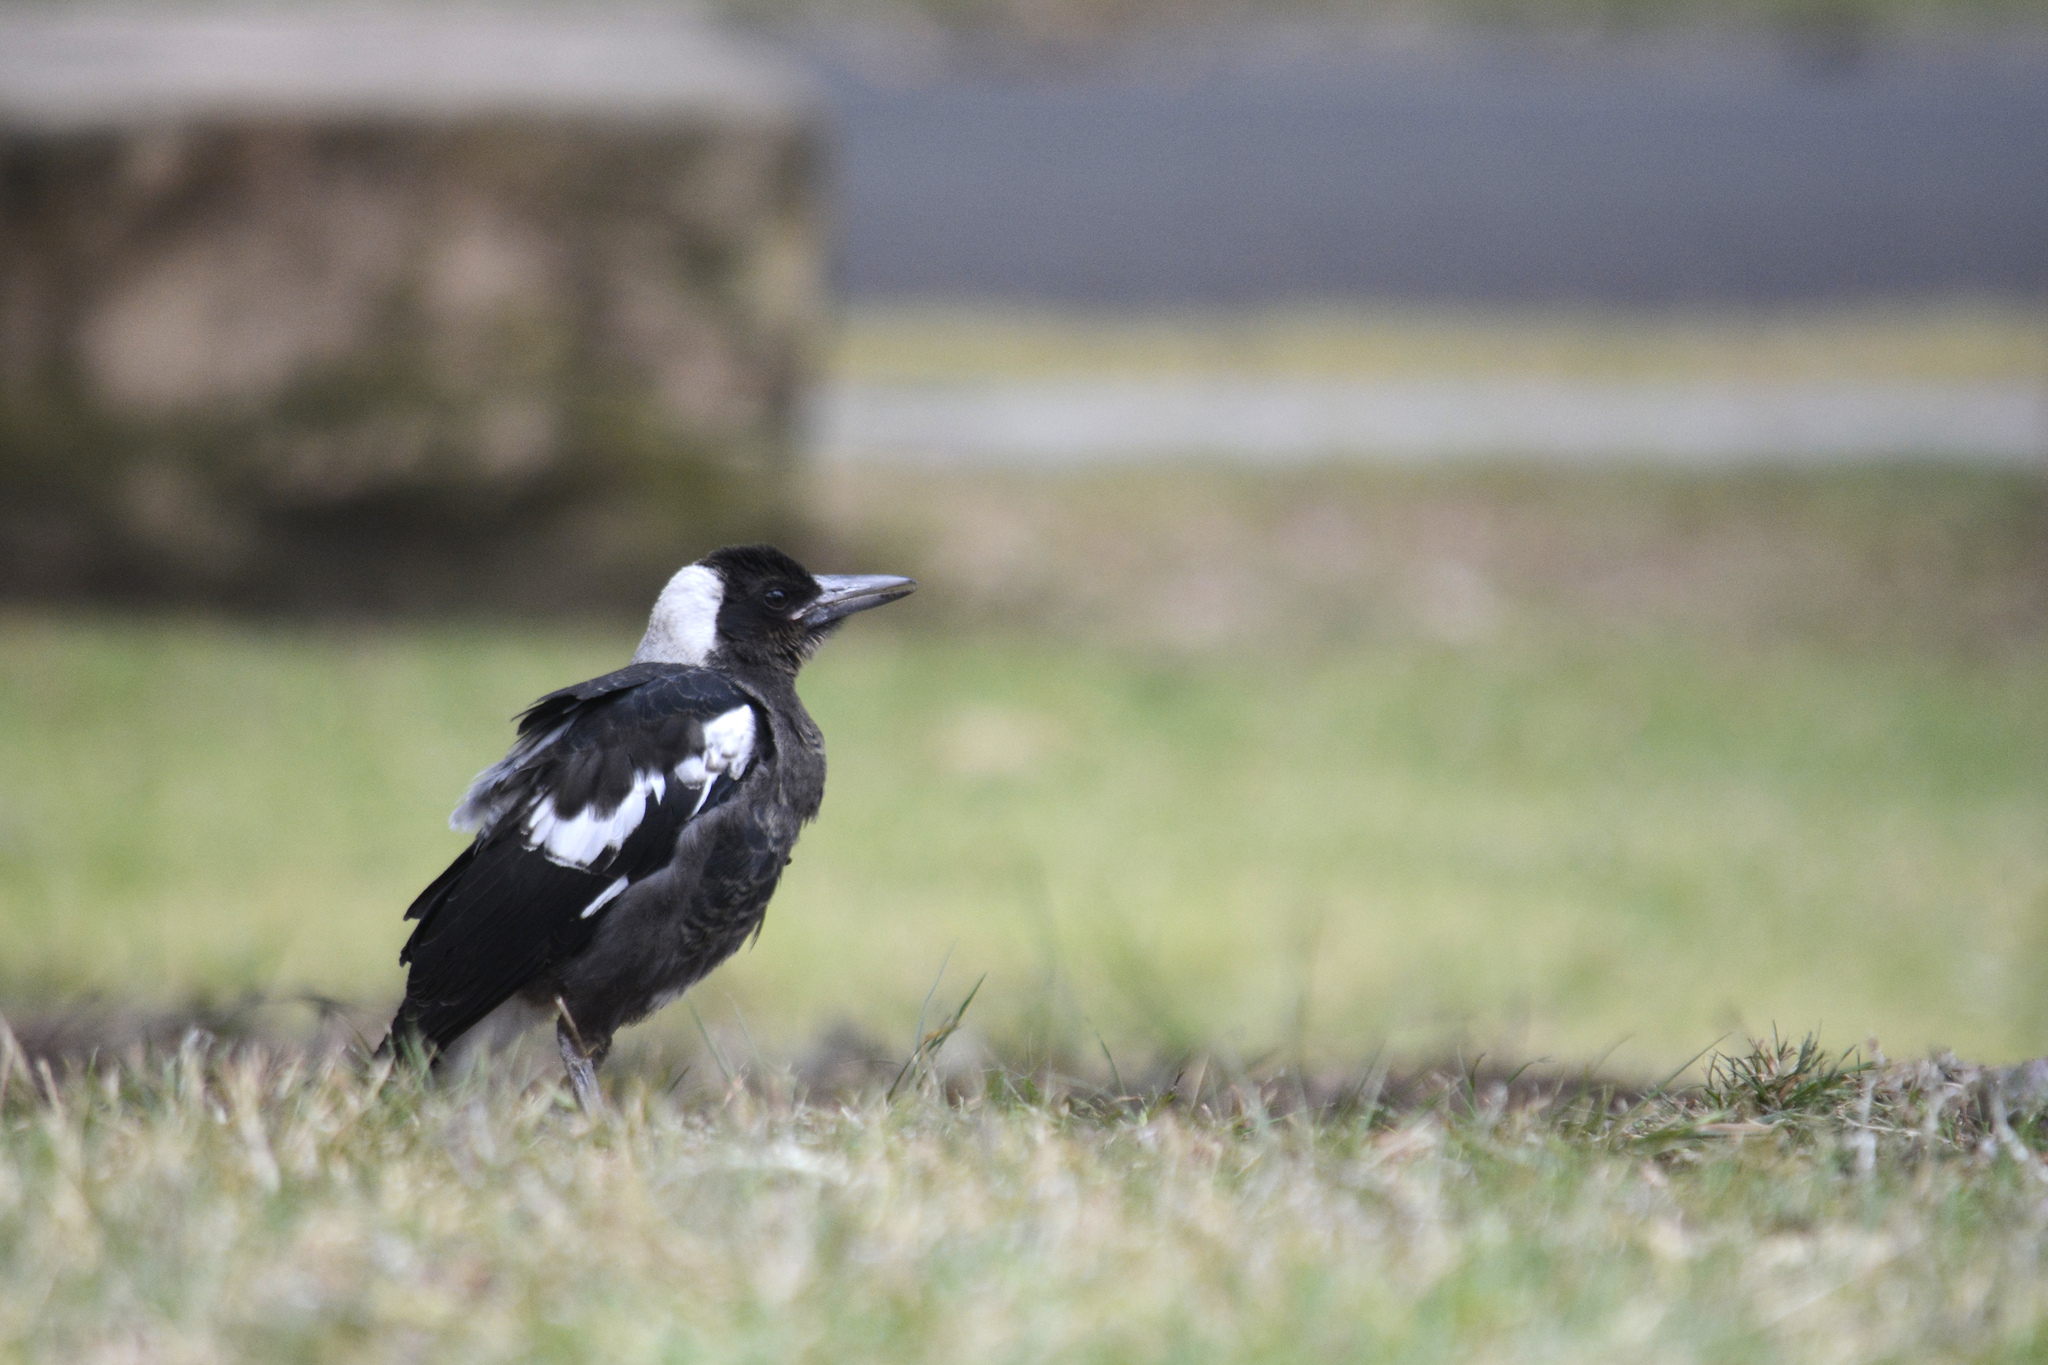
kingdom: Animalia
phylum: Chordata
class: Aves
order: Passeriformes
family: Cracticidae
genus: Gymnorhina
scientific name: Gymnorhina tibicen
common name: Australian magpie
